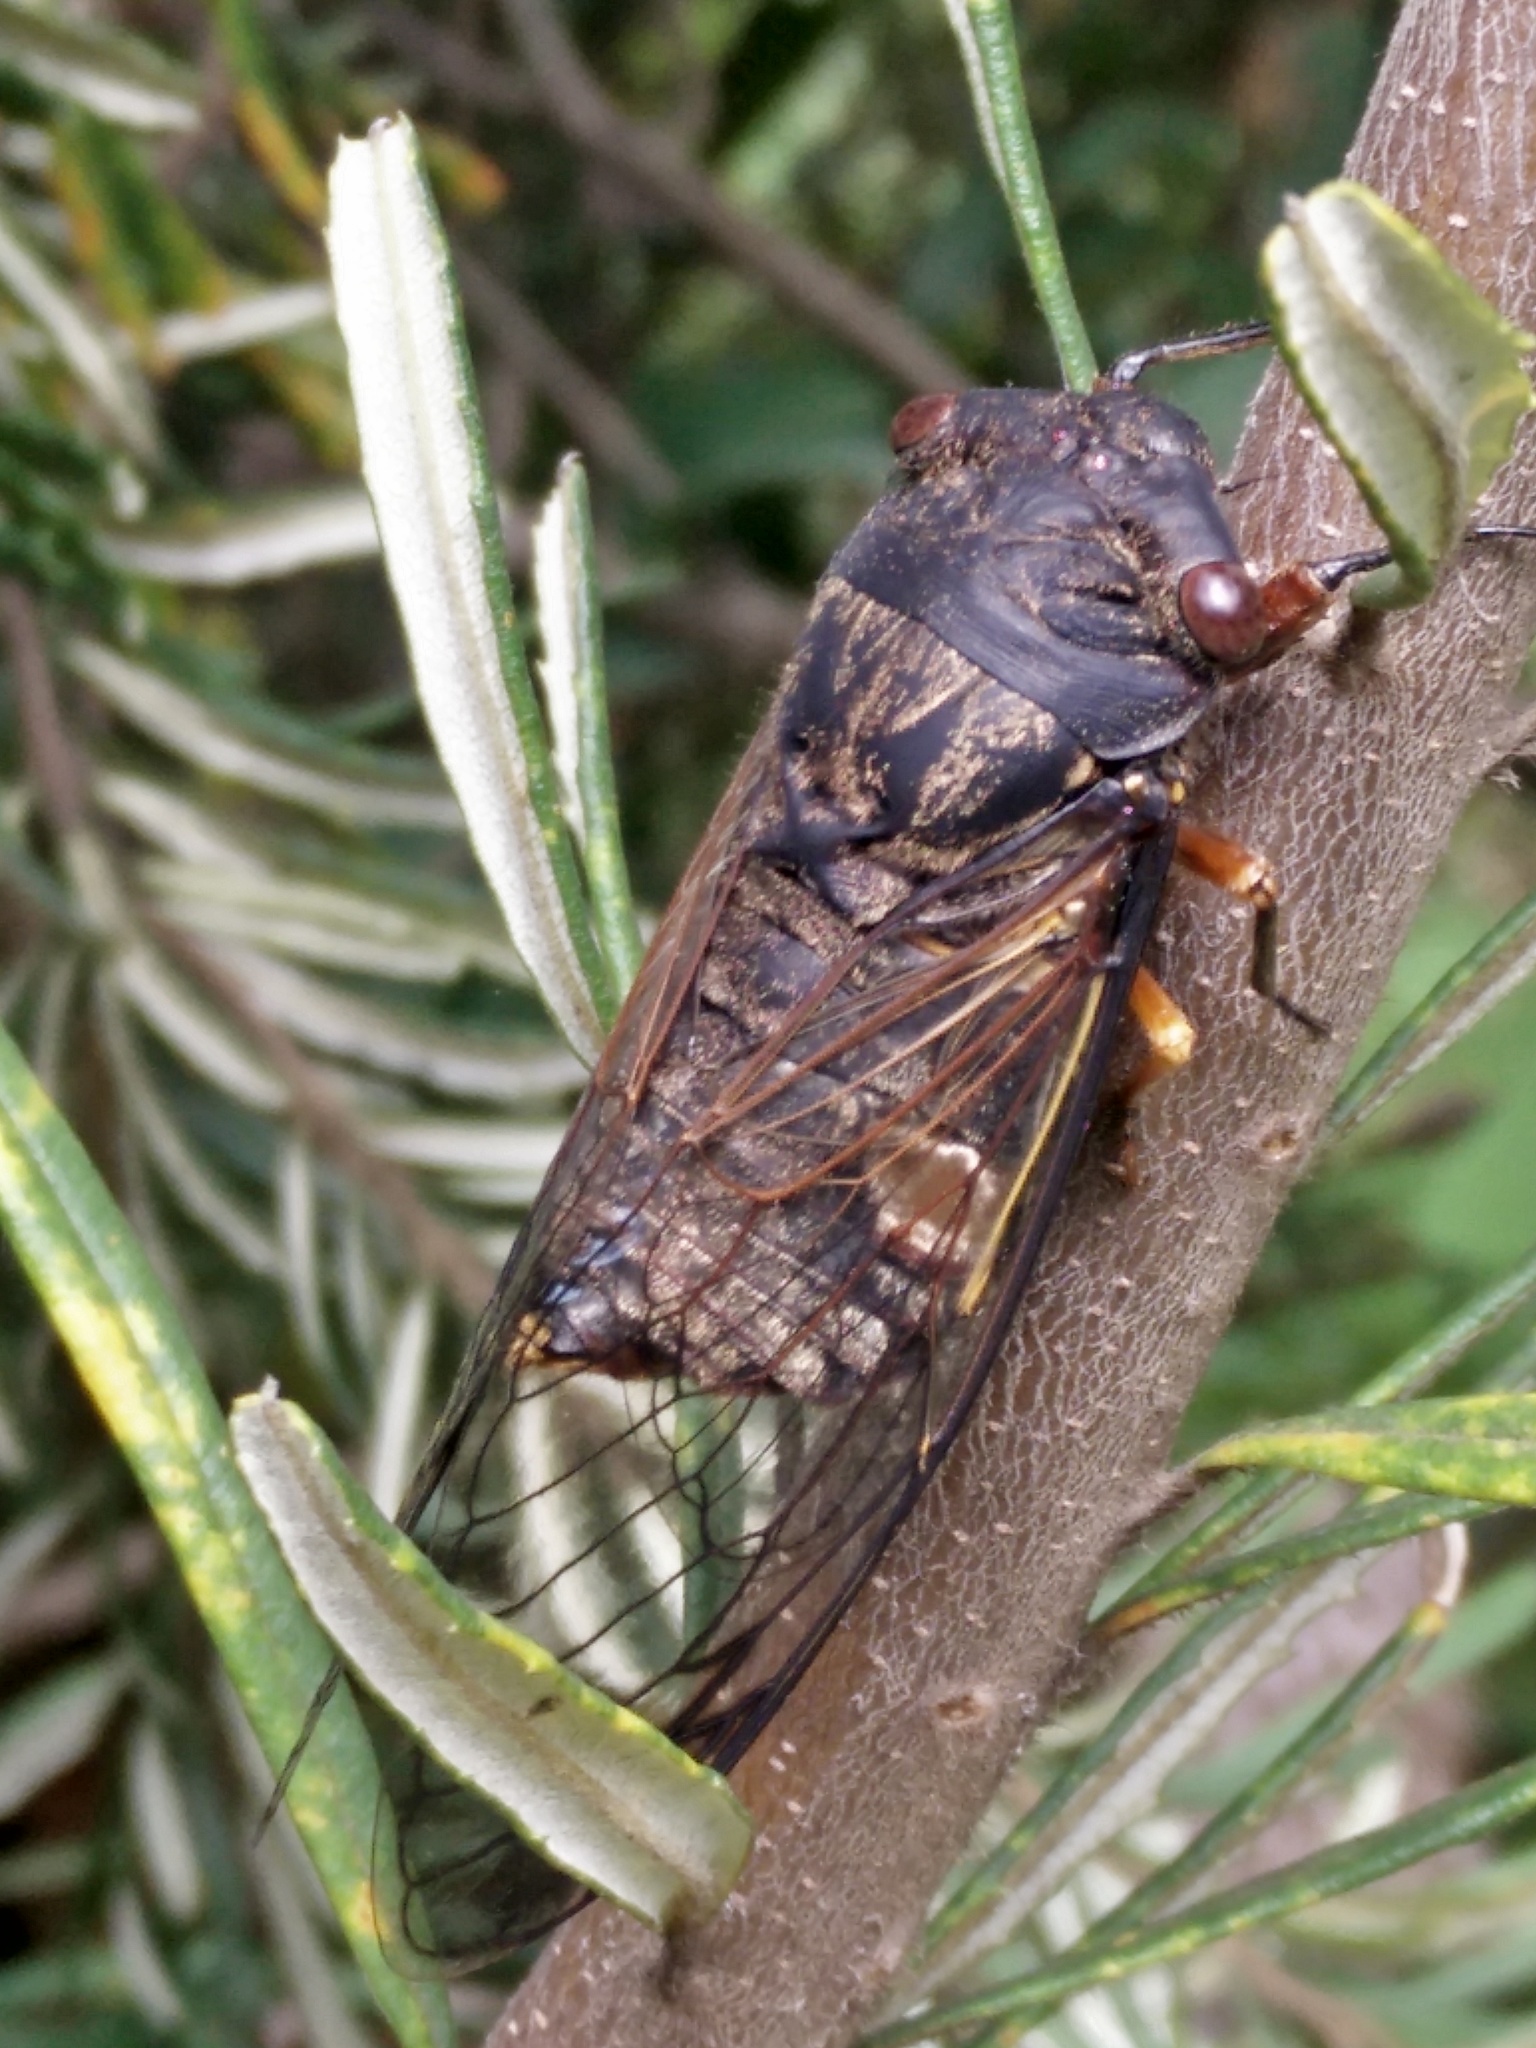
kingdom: Animalia
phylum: Arthropoda
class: Insecta
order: Hemiptera
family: Cicadidae
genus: Psaltoda
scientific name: Psaltoda plaga
